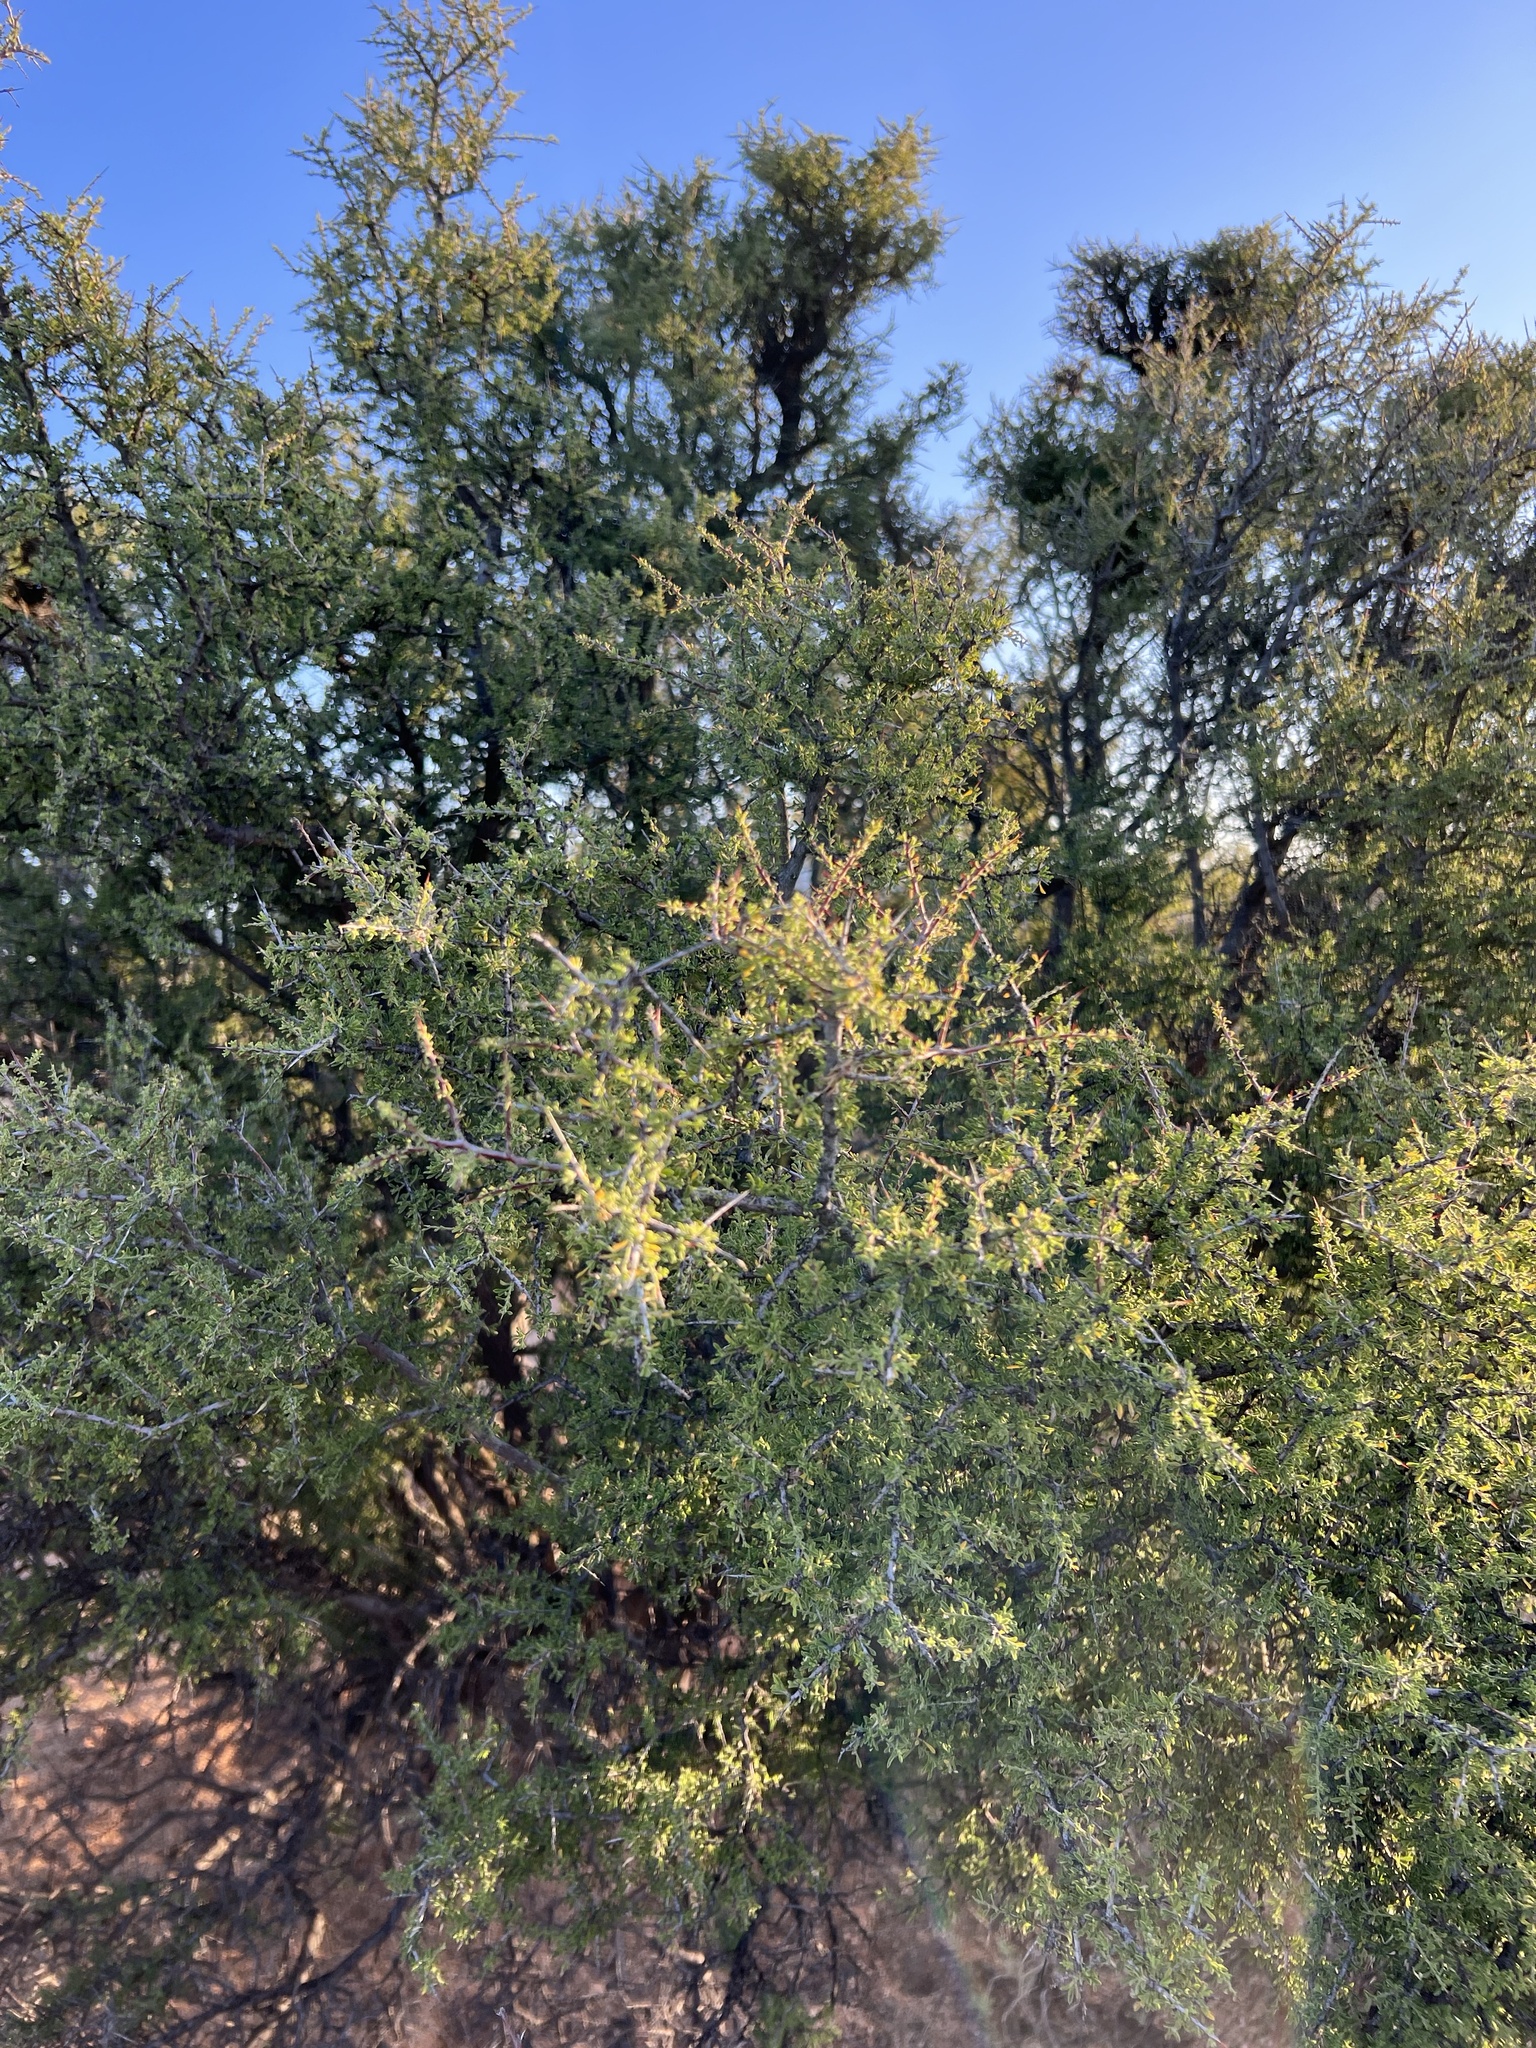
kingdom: Plantae
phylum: Tracheophyta
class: Magnoliopsida
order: Rosales
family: Rhamnaceae
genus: Condalia
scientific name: Condalia warnockii
